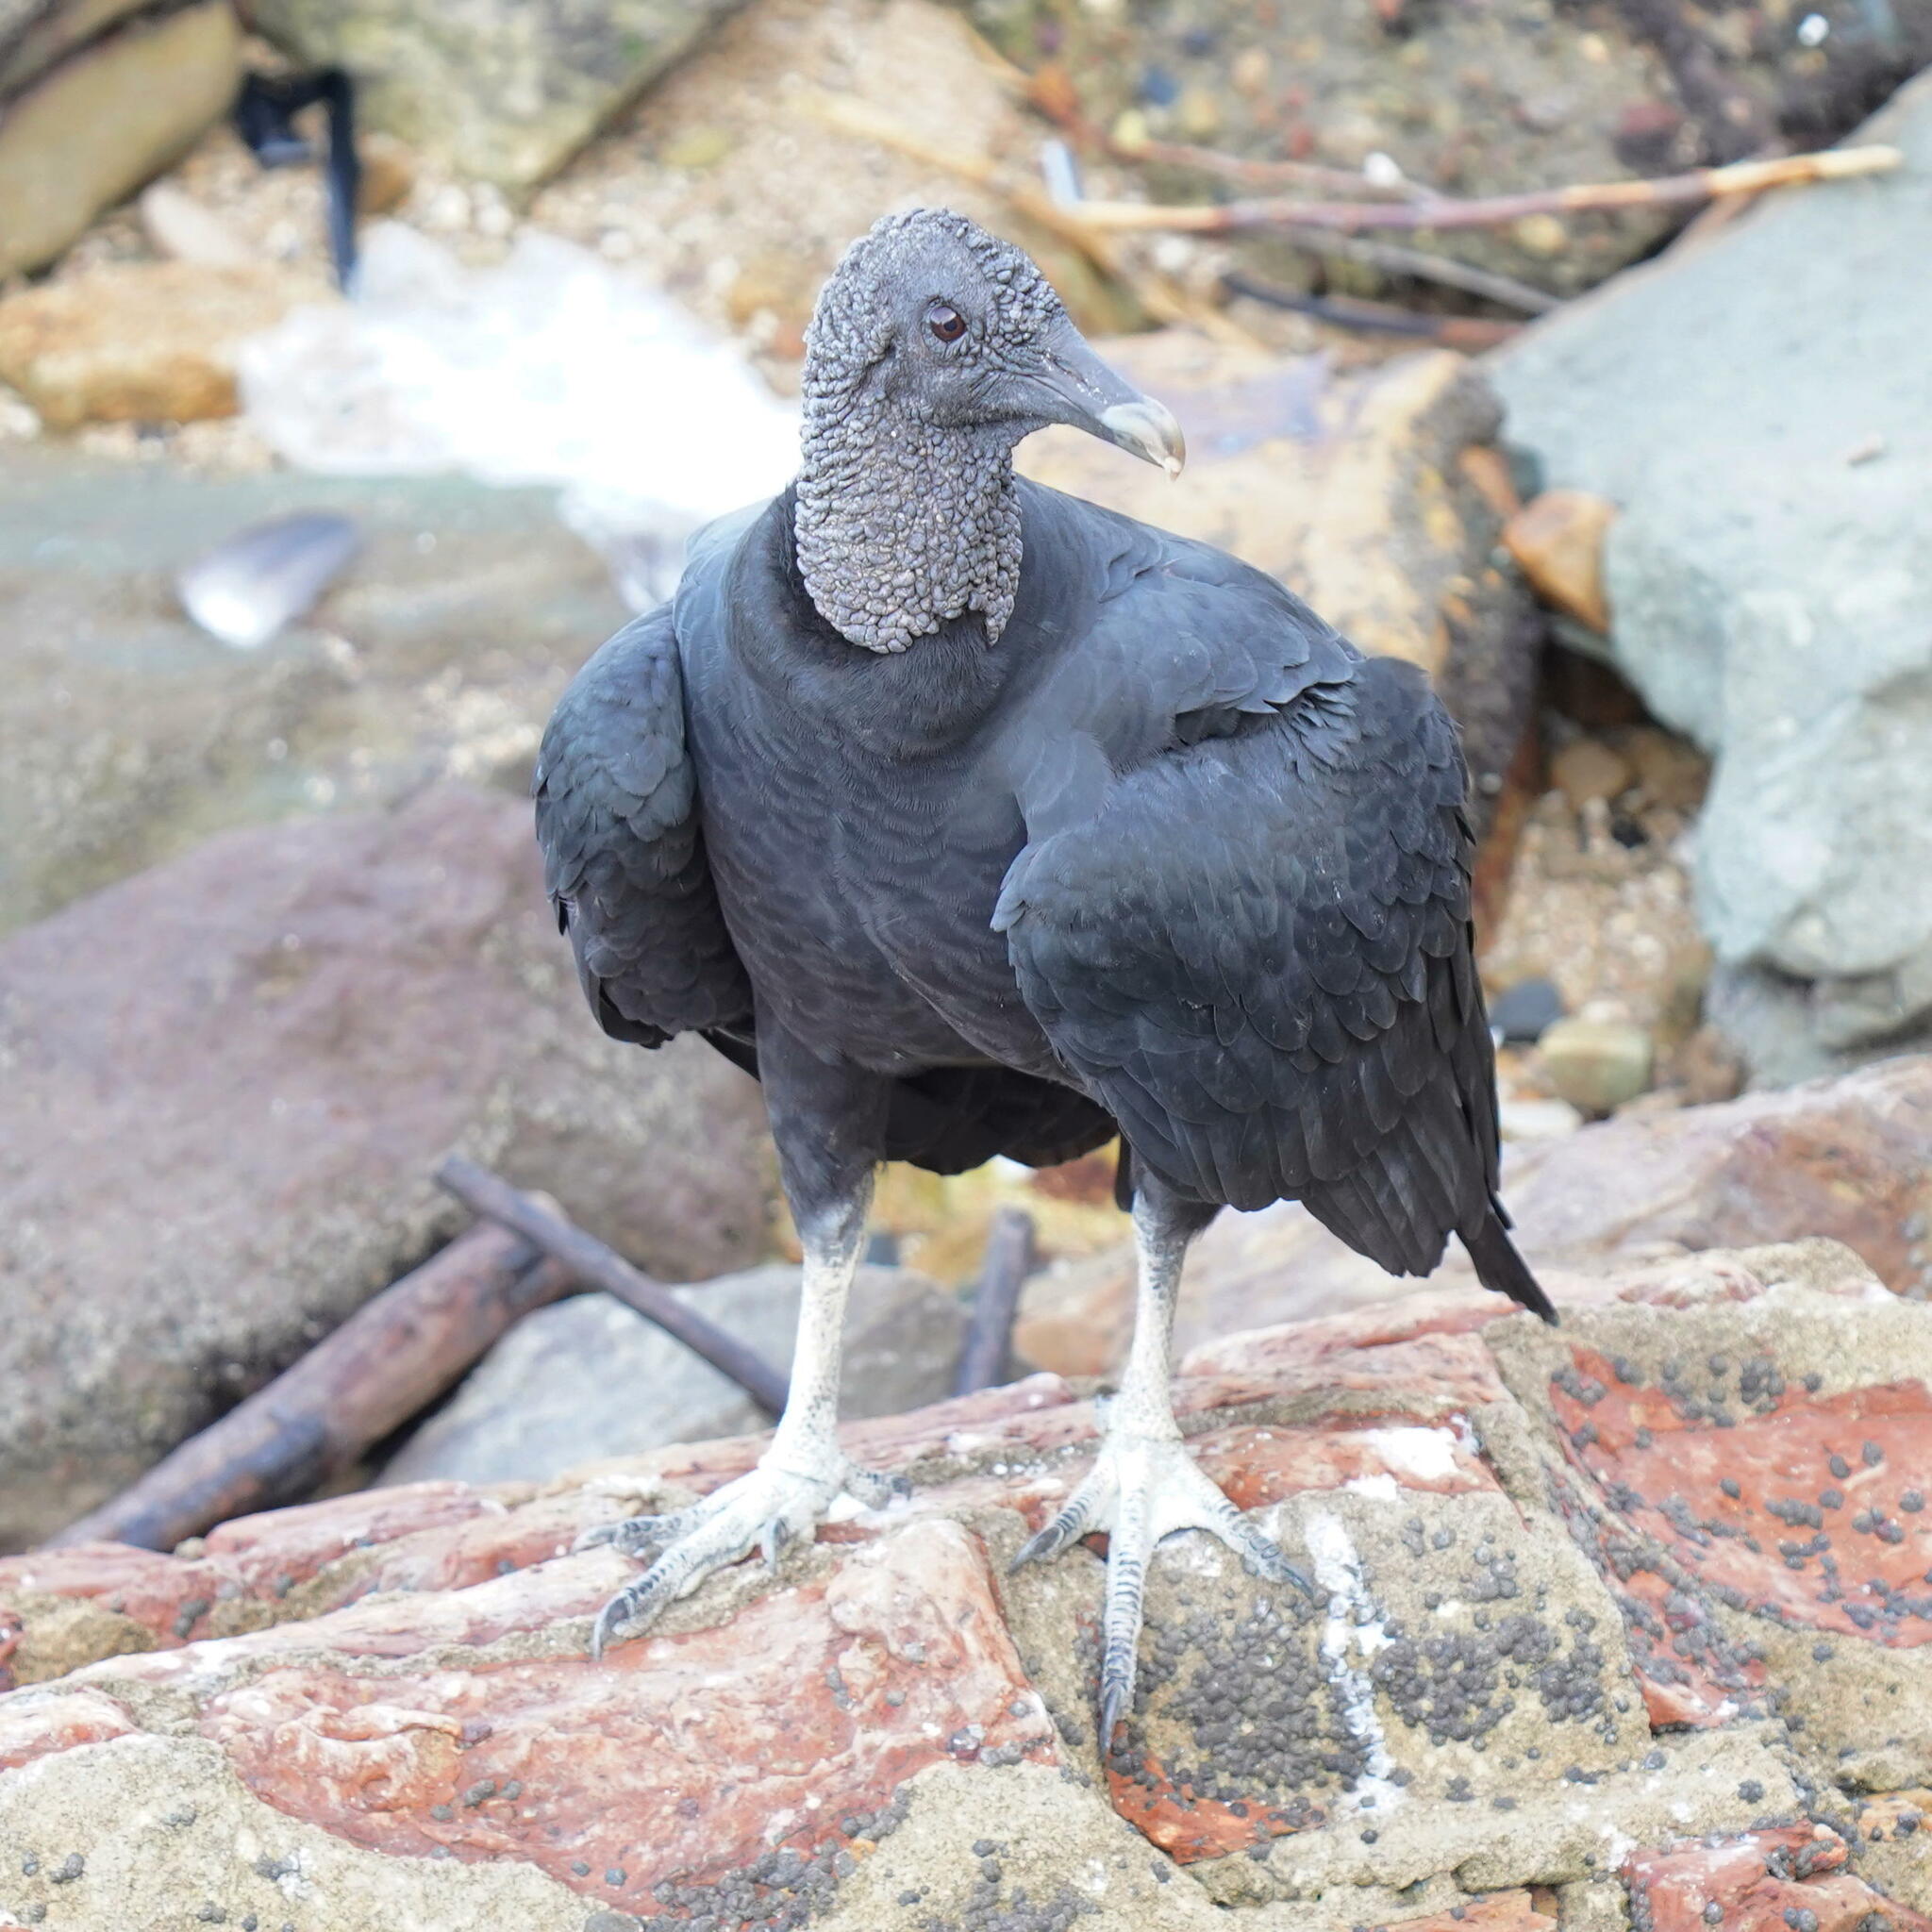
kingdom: Animalia
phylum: Chordata
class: Aves
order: Accipitriformes
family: Cathartidae
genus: Coragyps
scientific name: Coragyps atratus
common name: Black vulture
